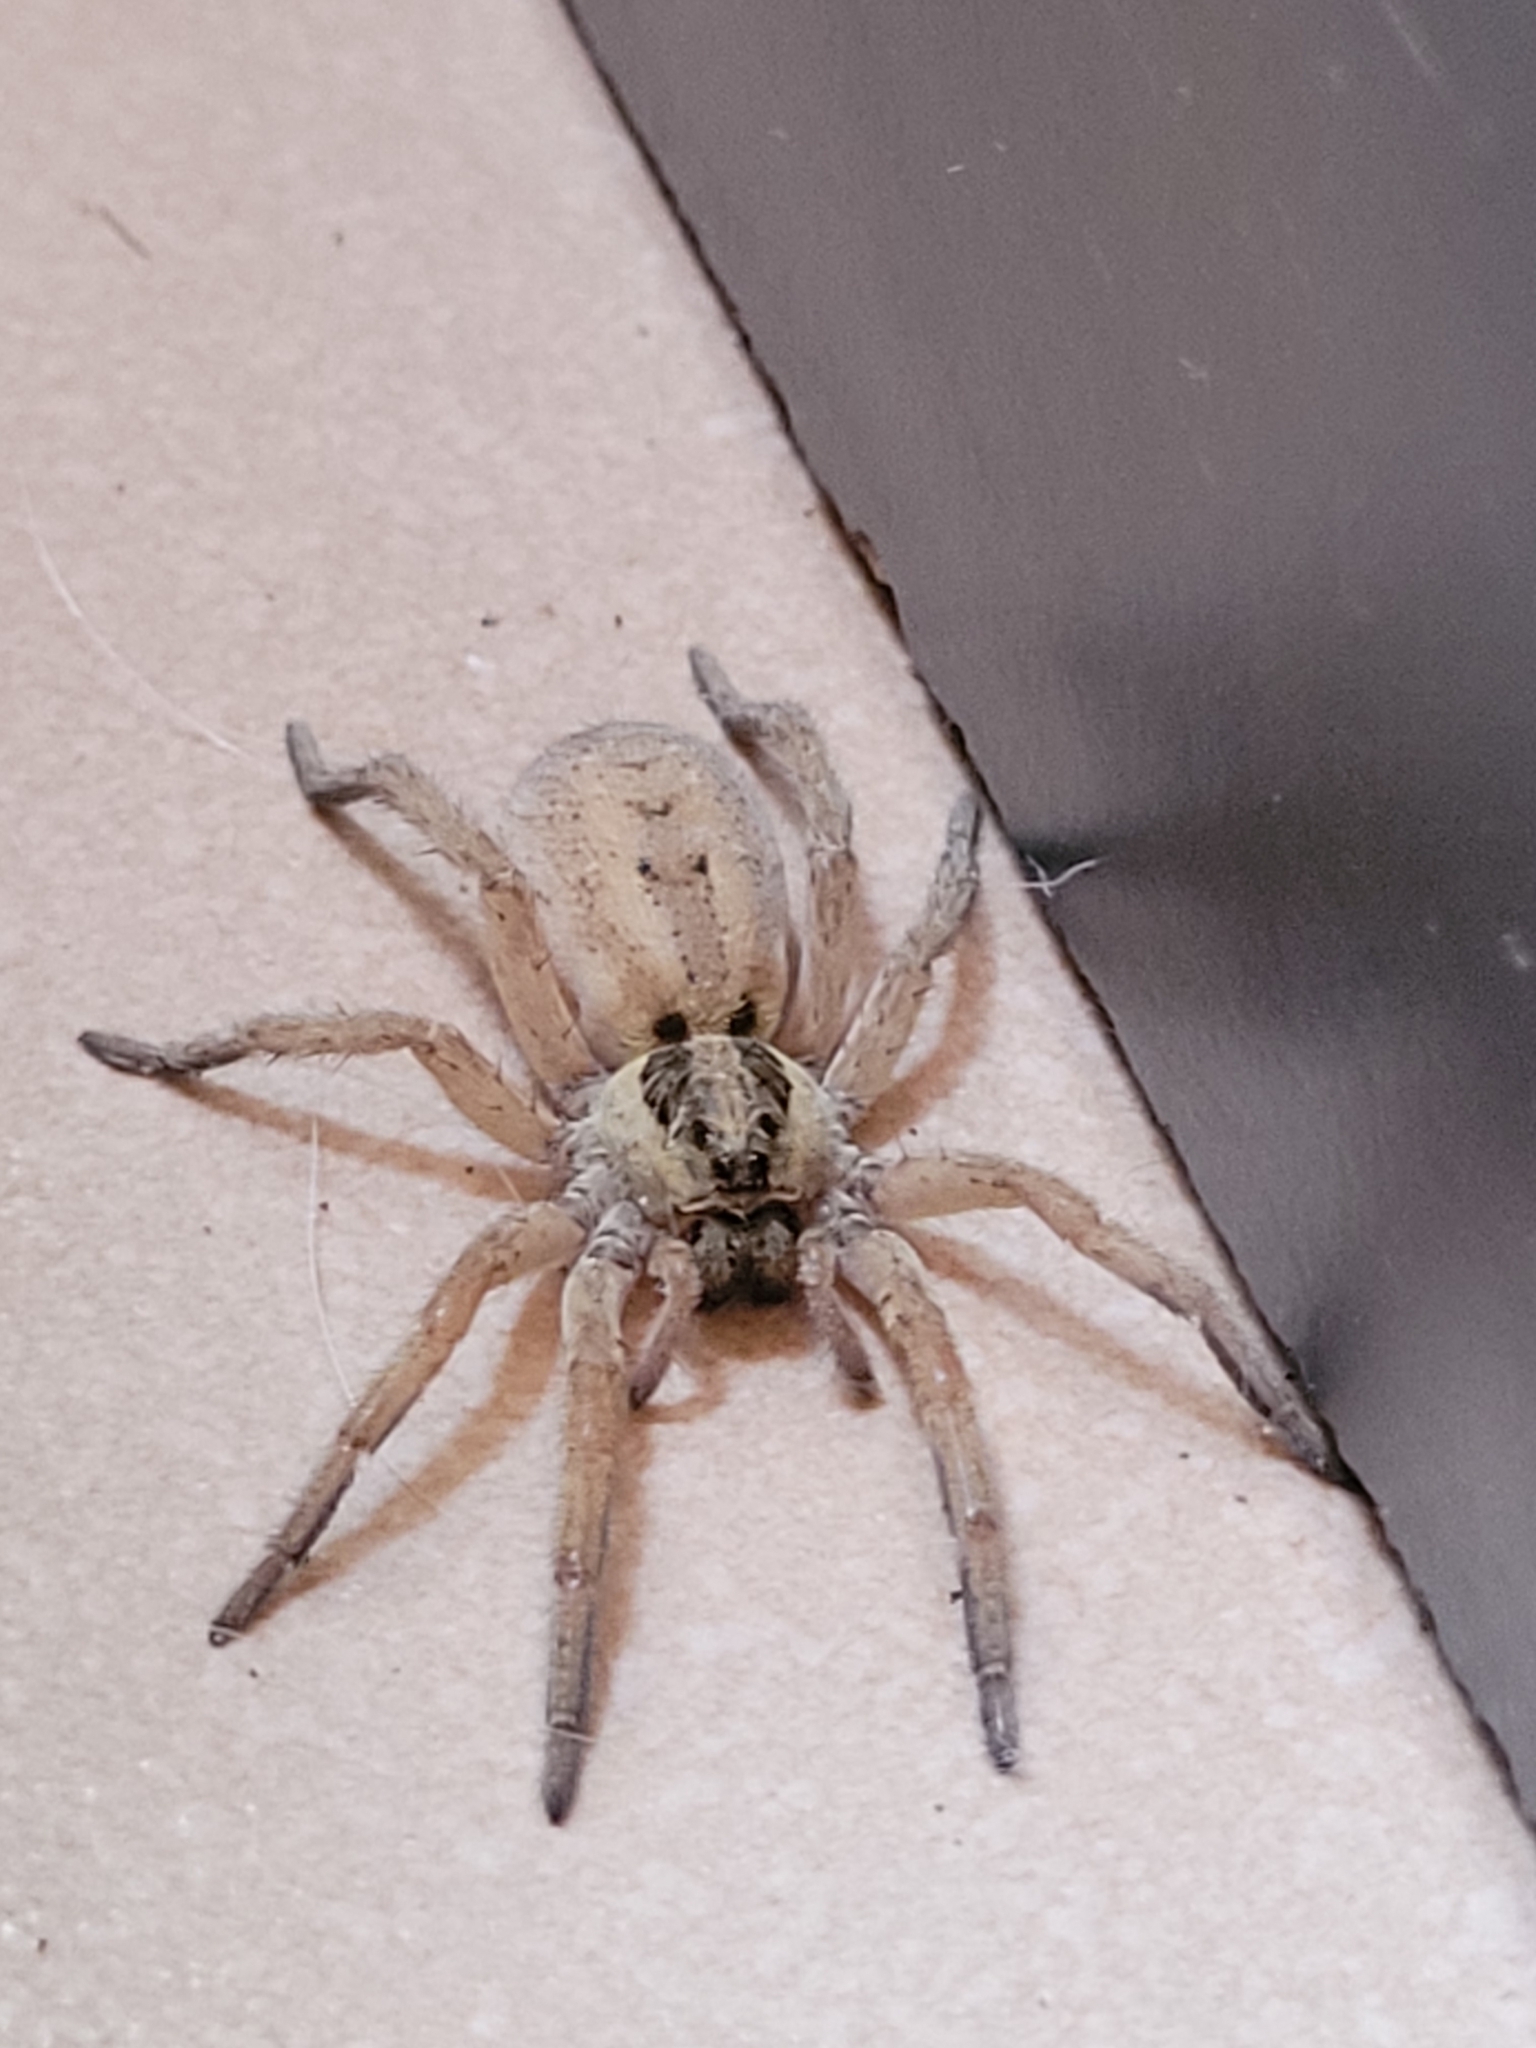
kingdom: Animalia
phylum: Arthropoda
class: Arachnida
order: Araneae
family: Lycosidae
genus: Hogna
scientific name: Hogna ferox
